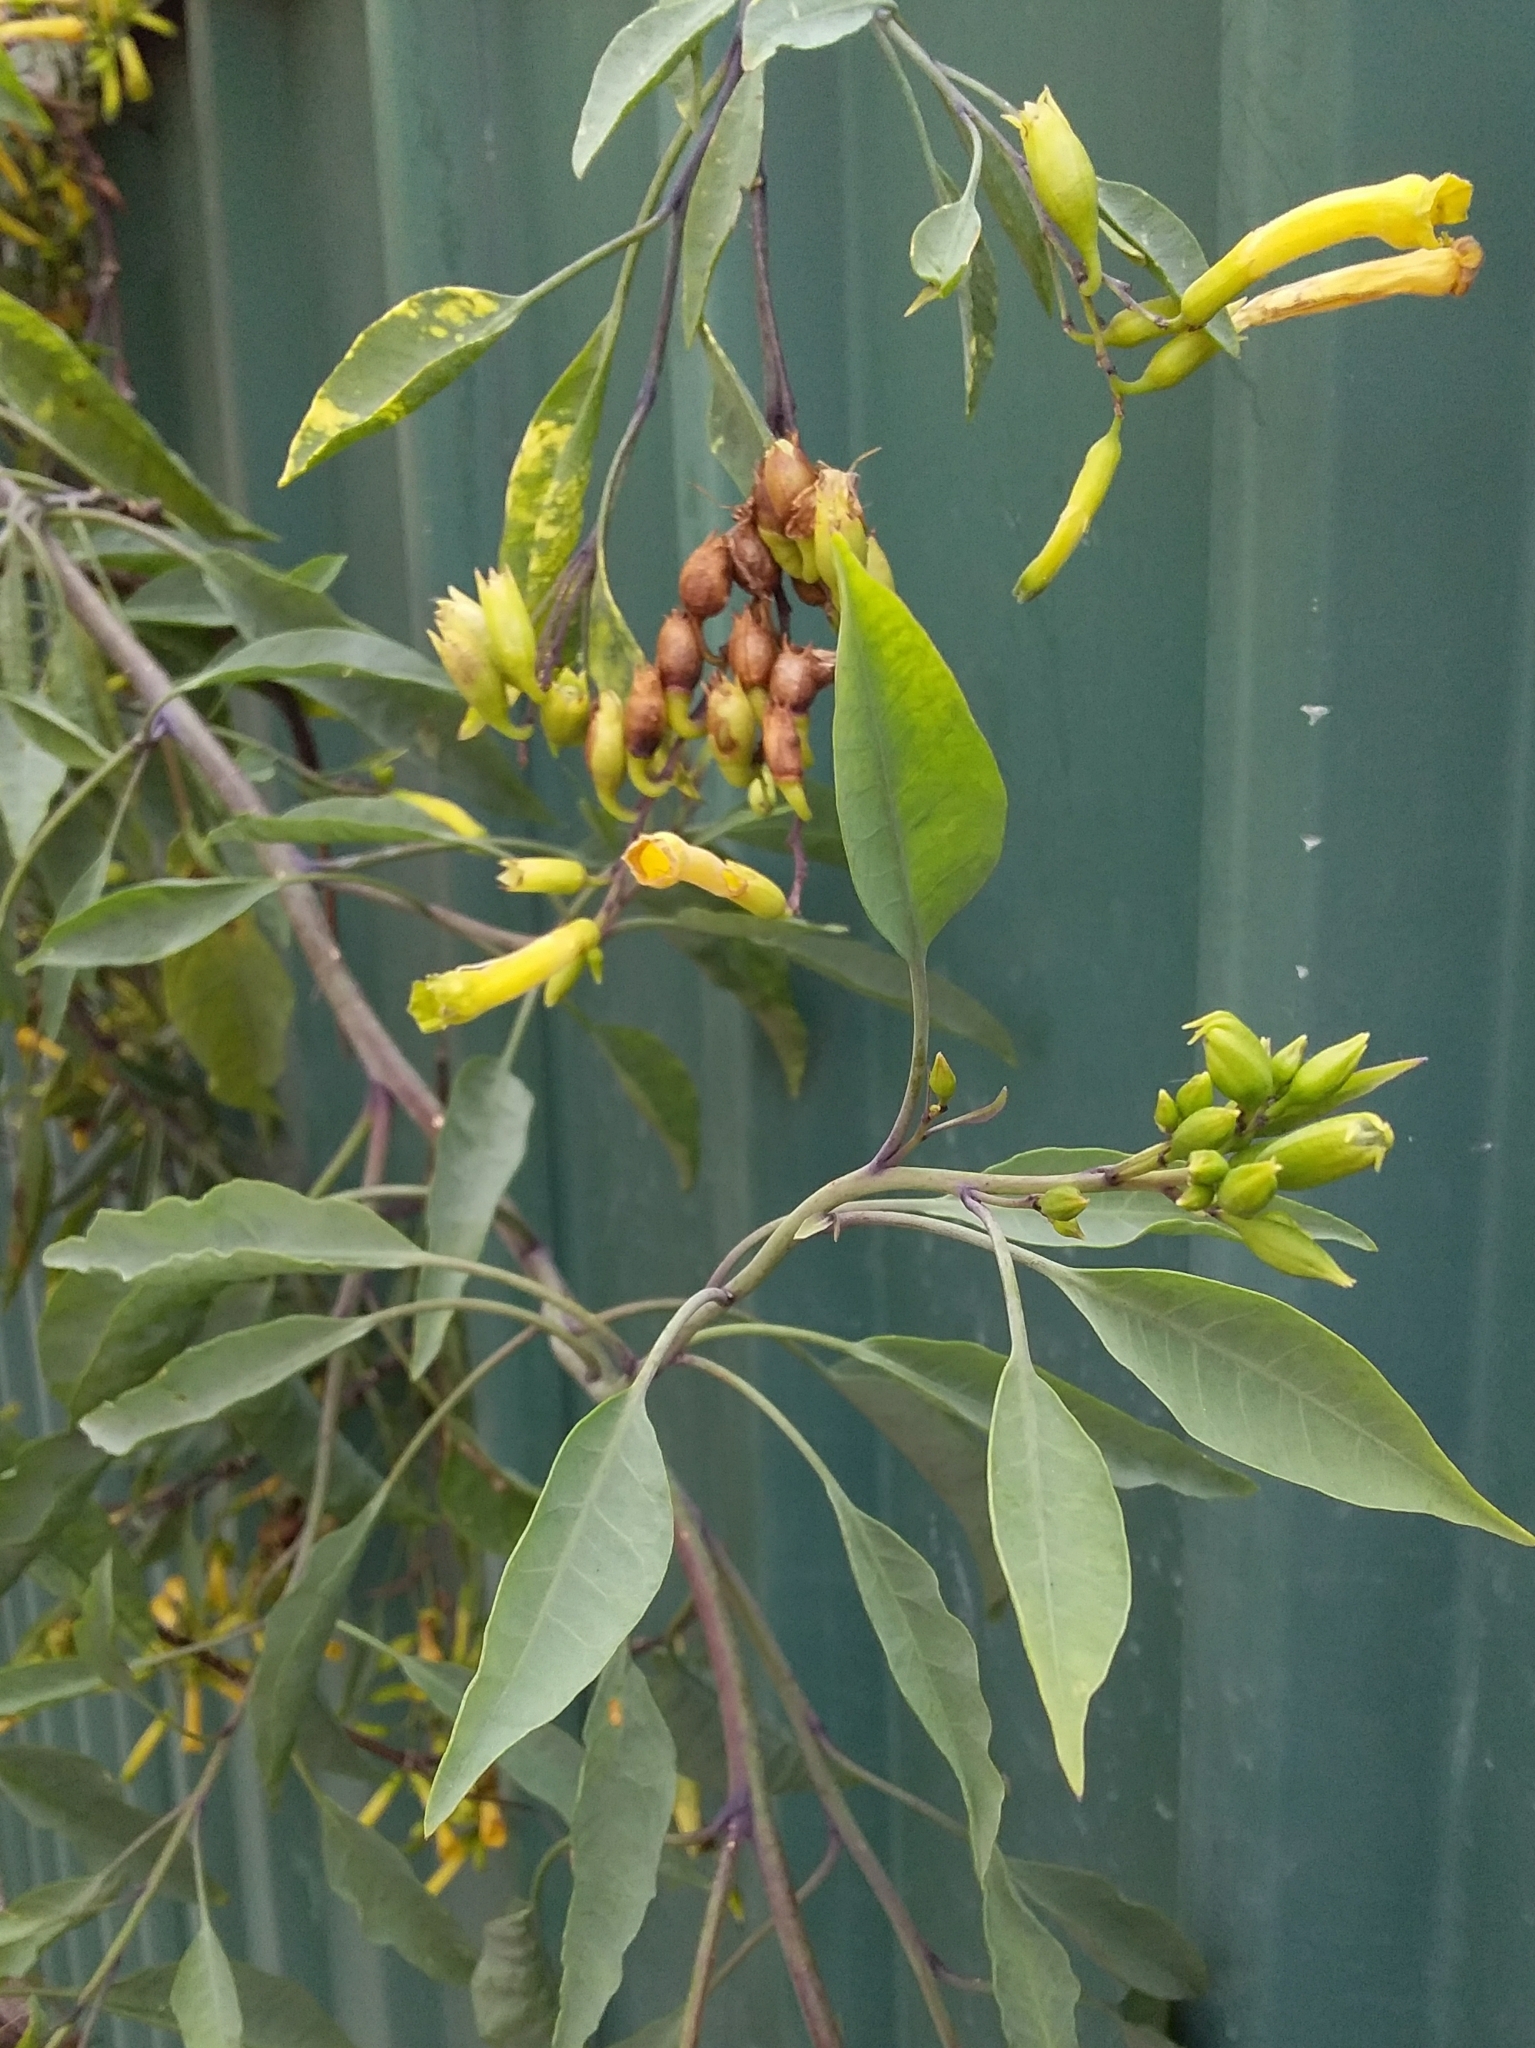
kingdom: Plantae
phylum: Tracheophyta
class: Magnoliopsida
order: Solanales
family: Solanaceae
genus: Nicotiana
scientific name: Nicotiana glauca
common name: Tree tobacco
